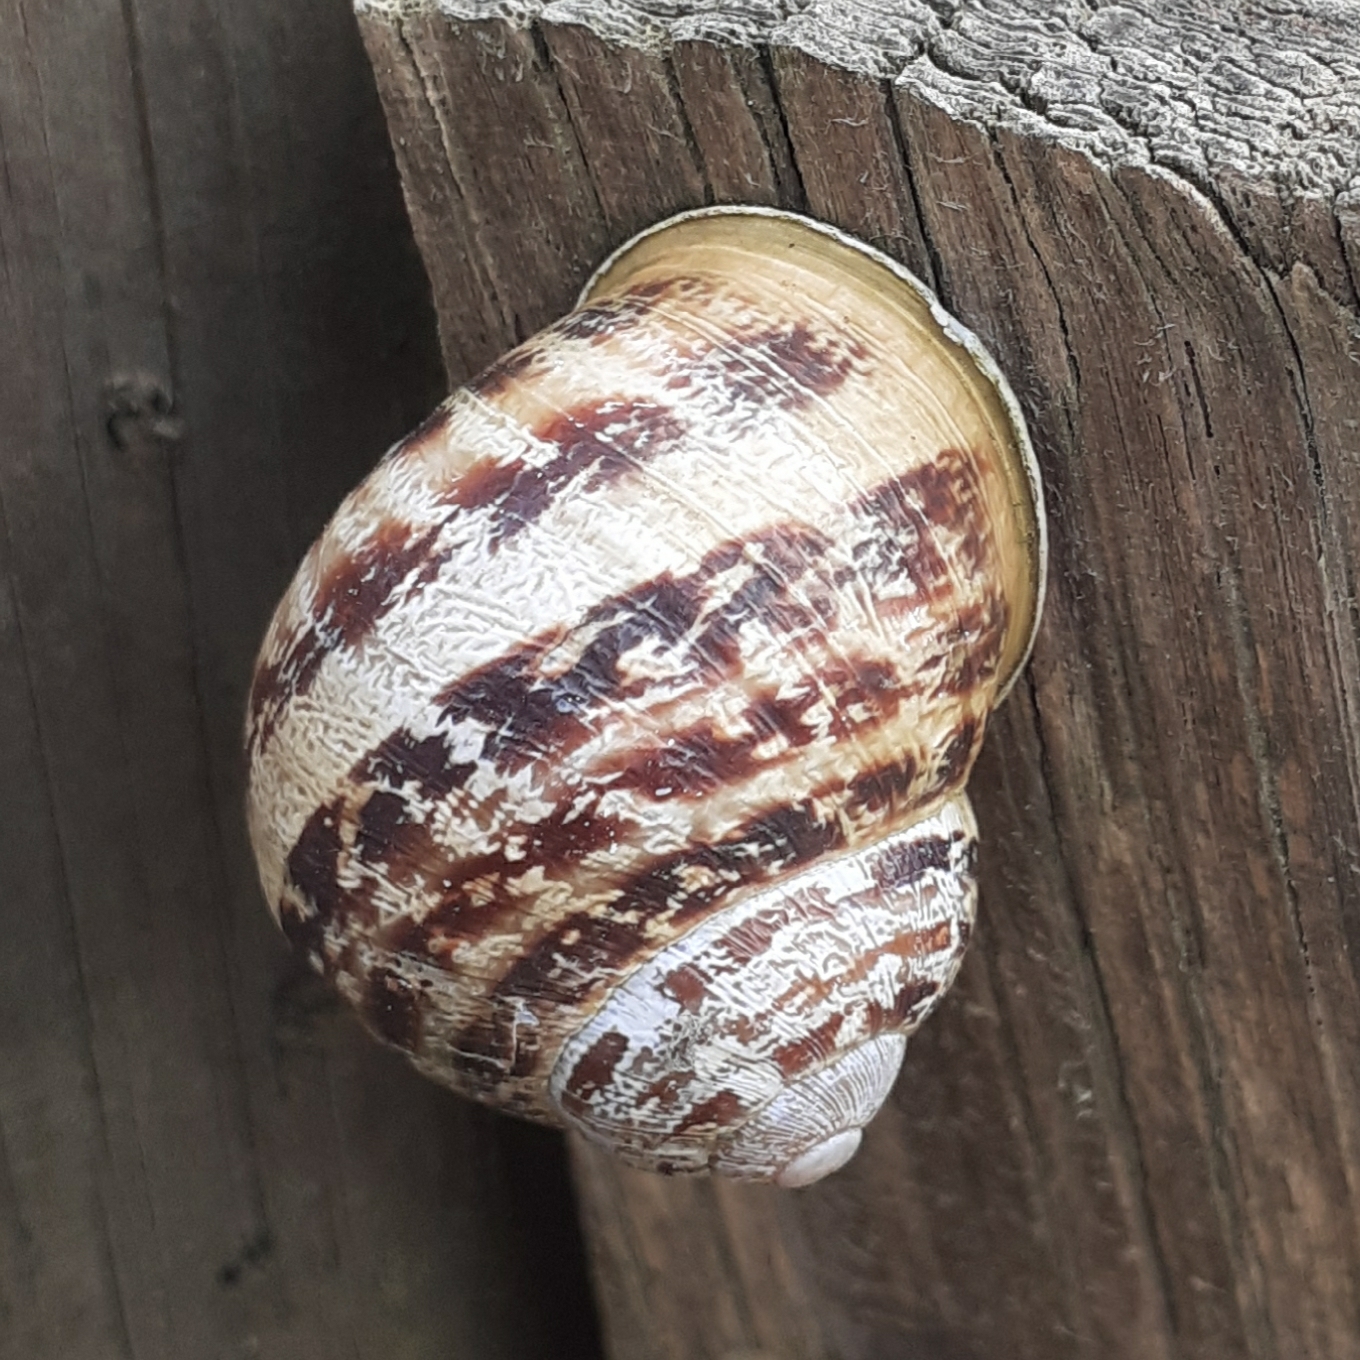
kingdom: Animalia
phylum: Mollusca
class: Gastropoda
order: Stylommatophora
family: Helicidae
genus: Cornu
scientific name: Cornu aspersum
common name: Brown garden snail
